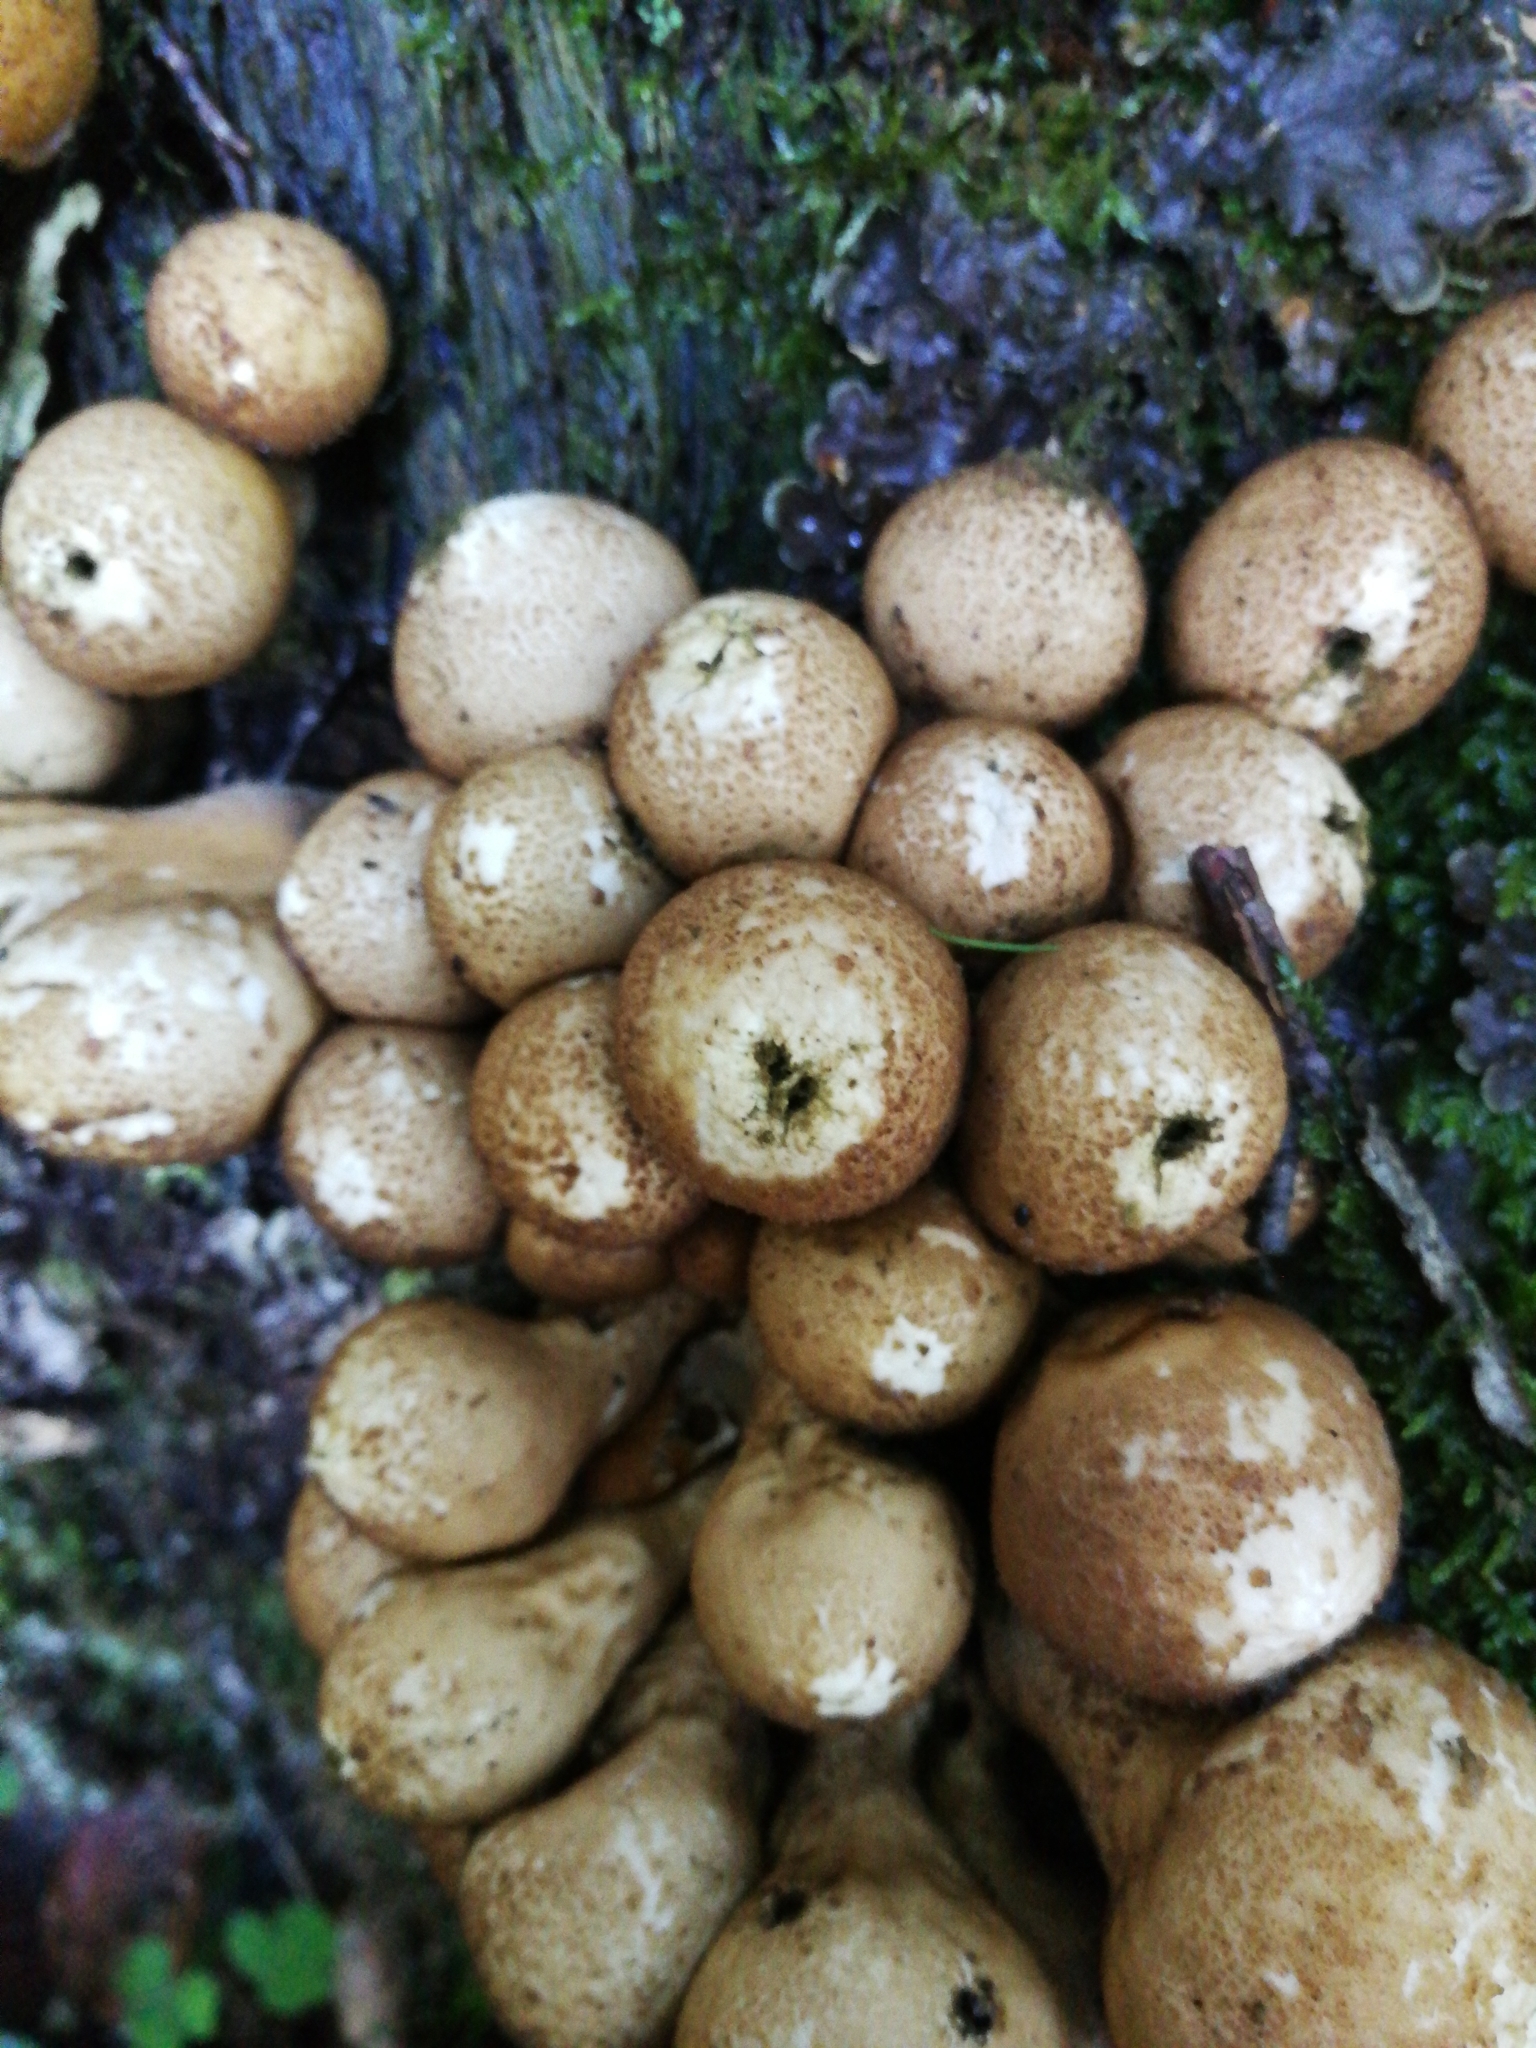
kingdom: Fungi
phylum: Basidiomycota
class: Agaricomycetes
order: Agaricales
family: Lycoperdaceae
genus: Apioperdon
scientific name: Apioperdon pyriforme
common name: Pear-shaped puffball
